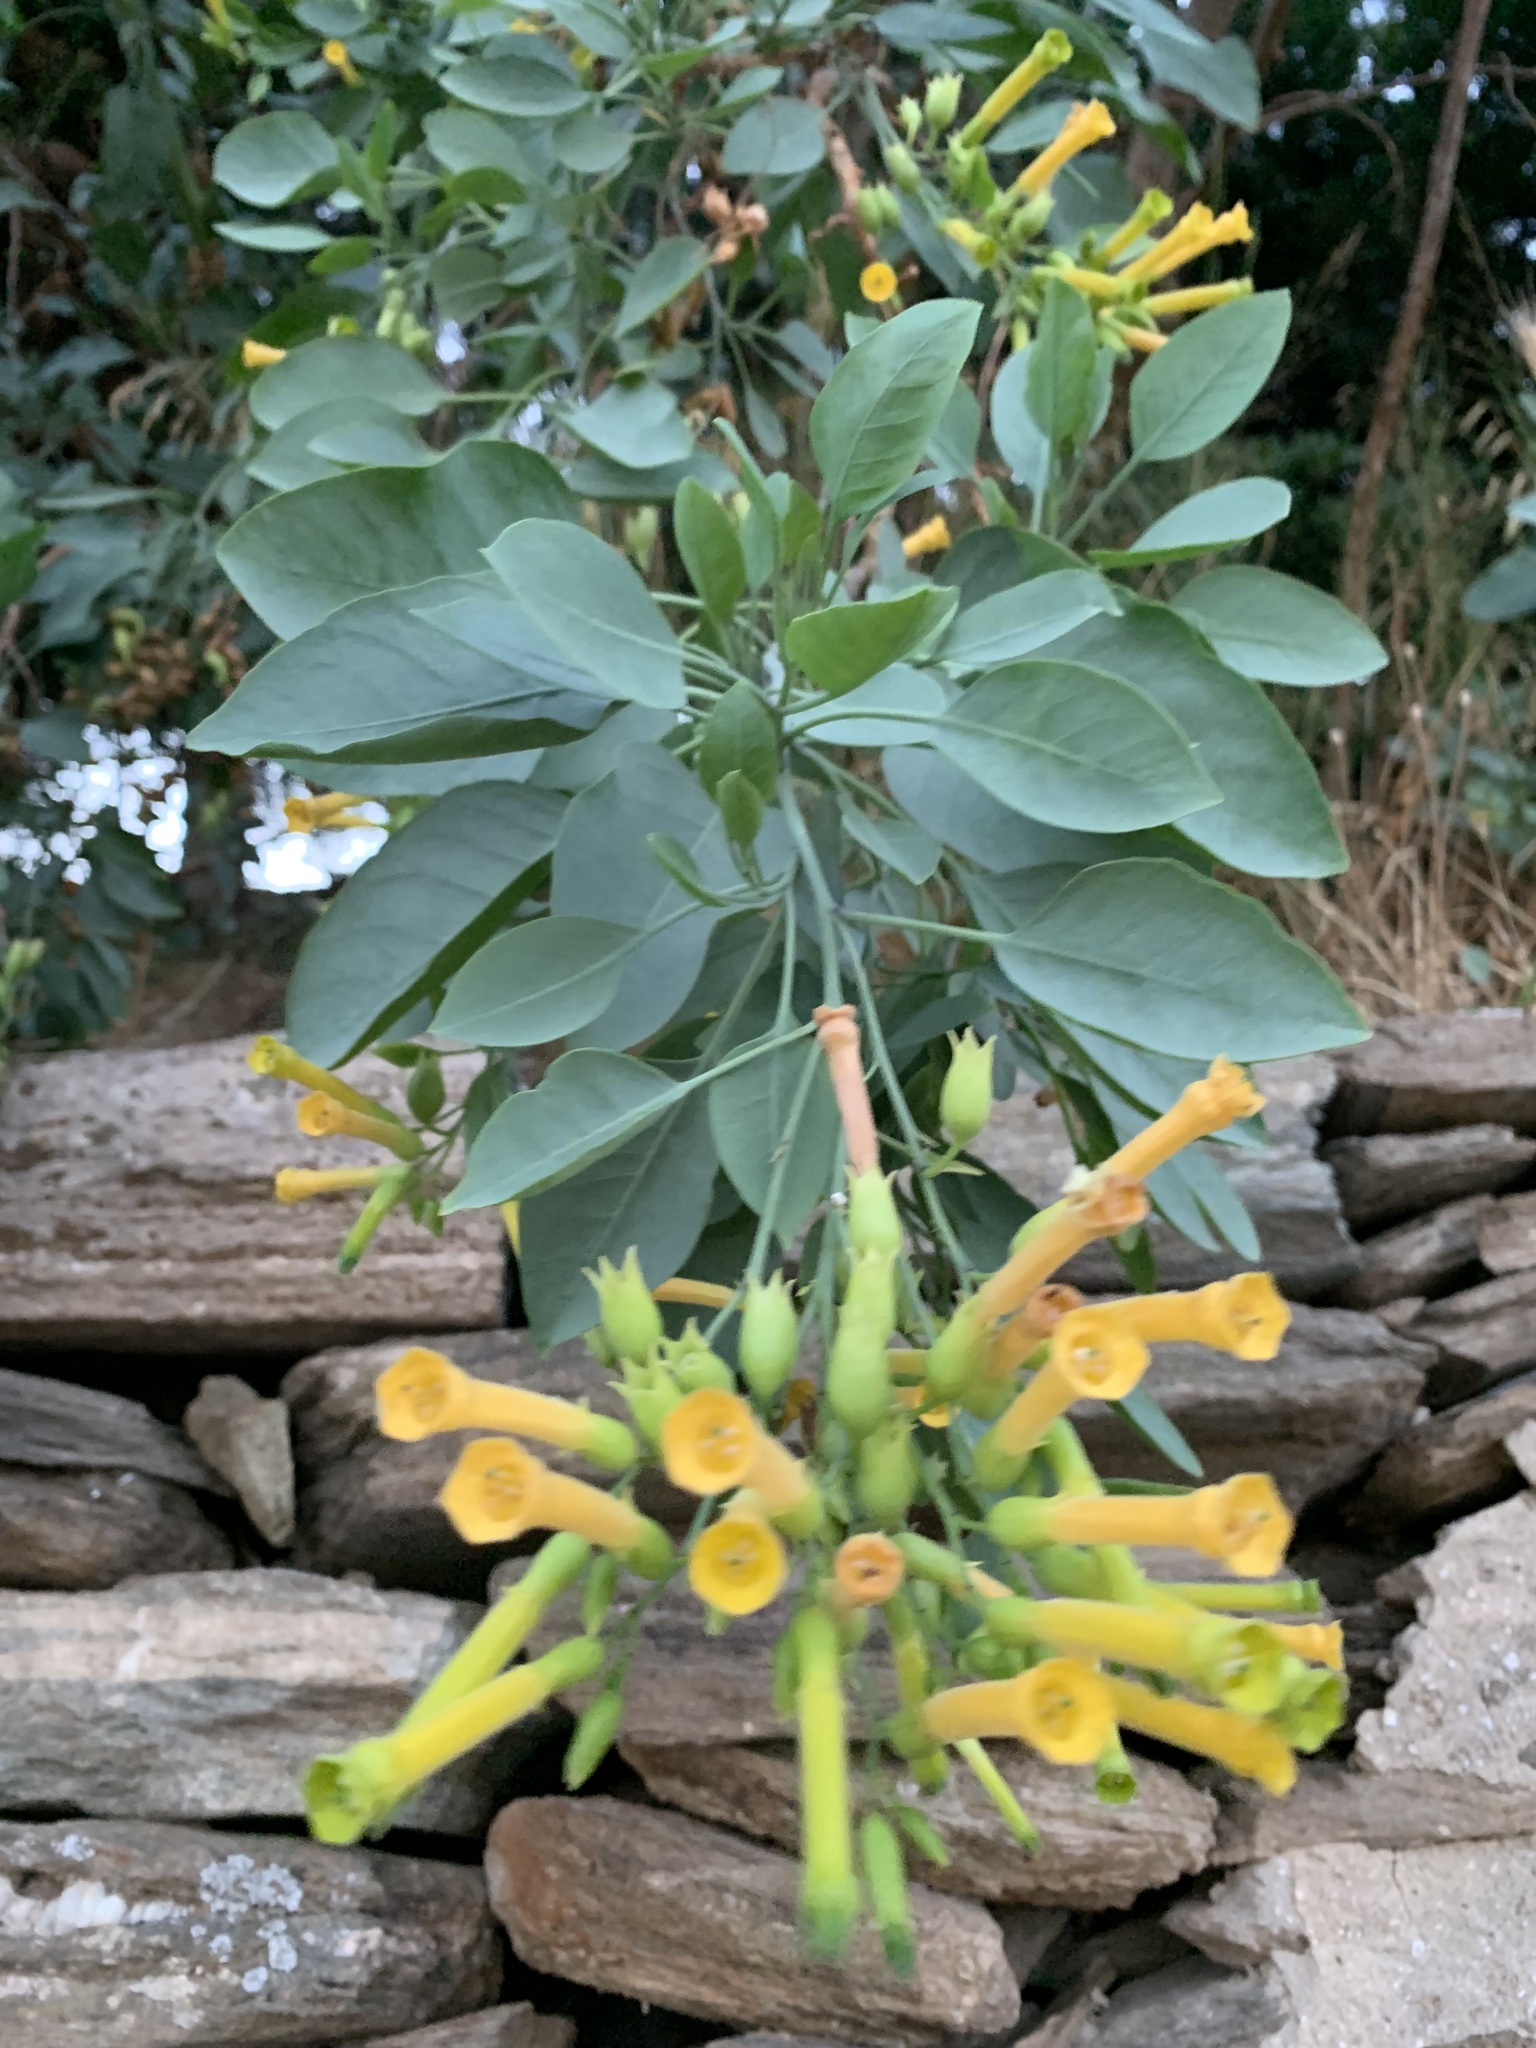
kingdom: Plantae
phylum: Tracheophyta
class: Magnoliopsida
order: Solanales
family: Solanaceae
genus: Nicotiana
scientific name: Nicotiana glauca
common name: Tree tobacco
